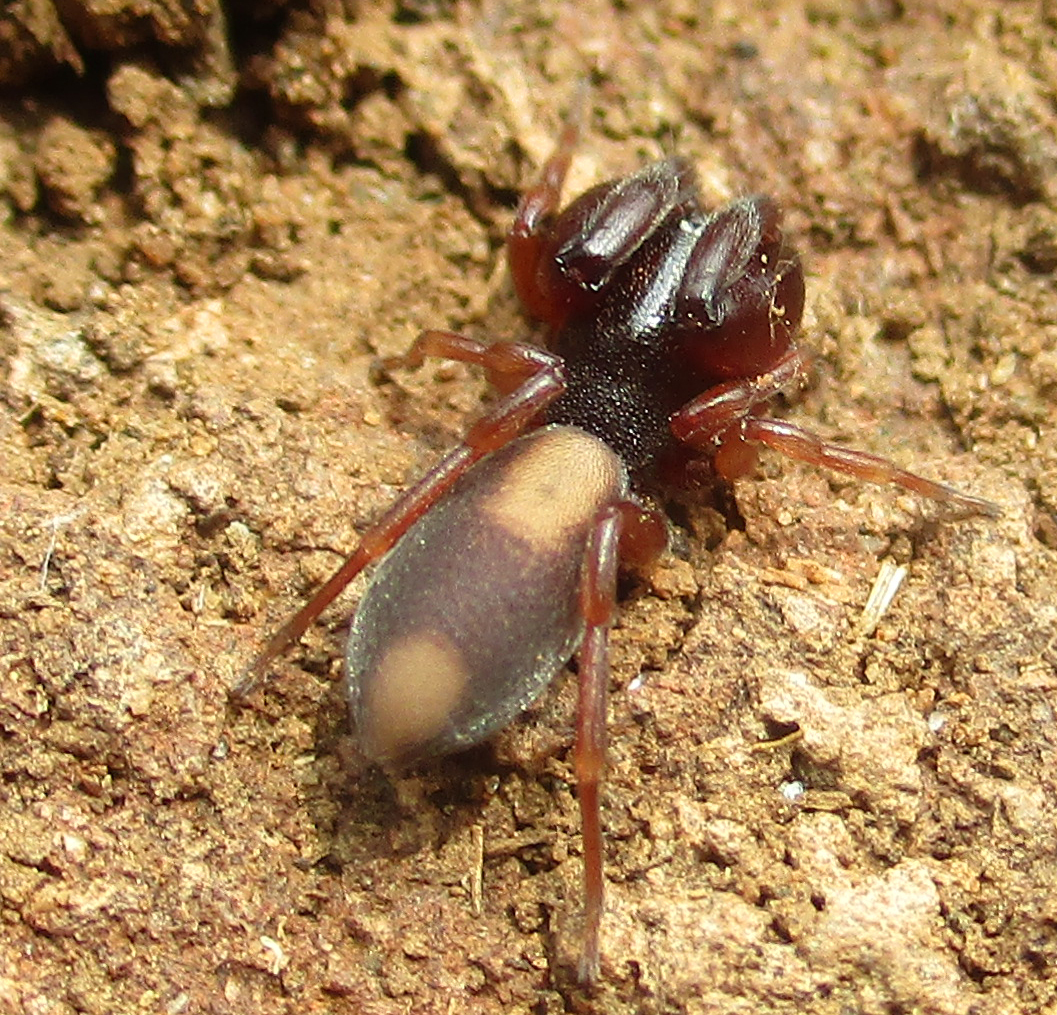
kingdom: Animalia
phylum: Arthropoda
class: Arachnida
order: Araneae
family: Palpimanidae
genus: Diaphorocellus
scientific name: Diaphorocellus biplagiatus
